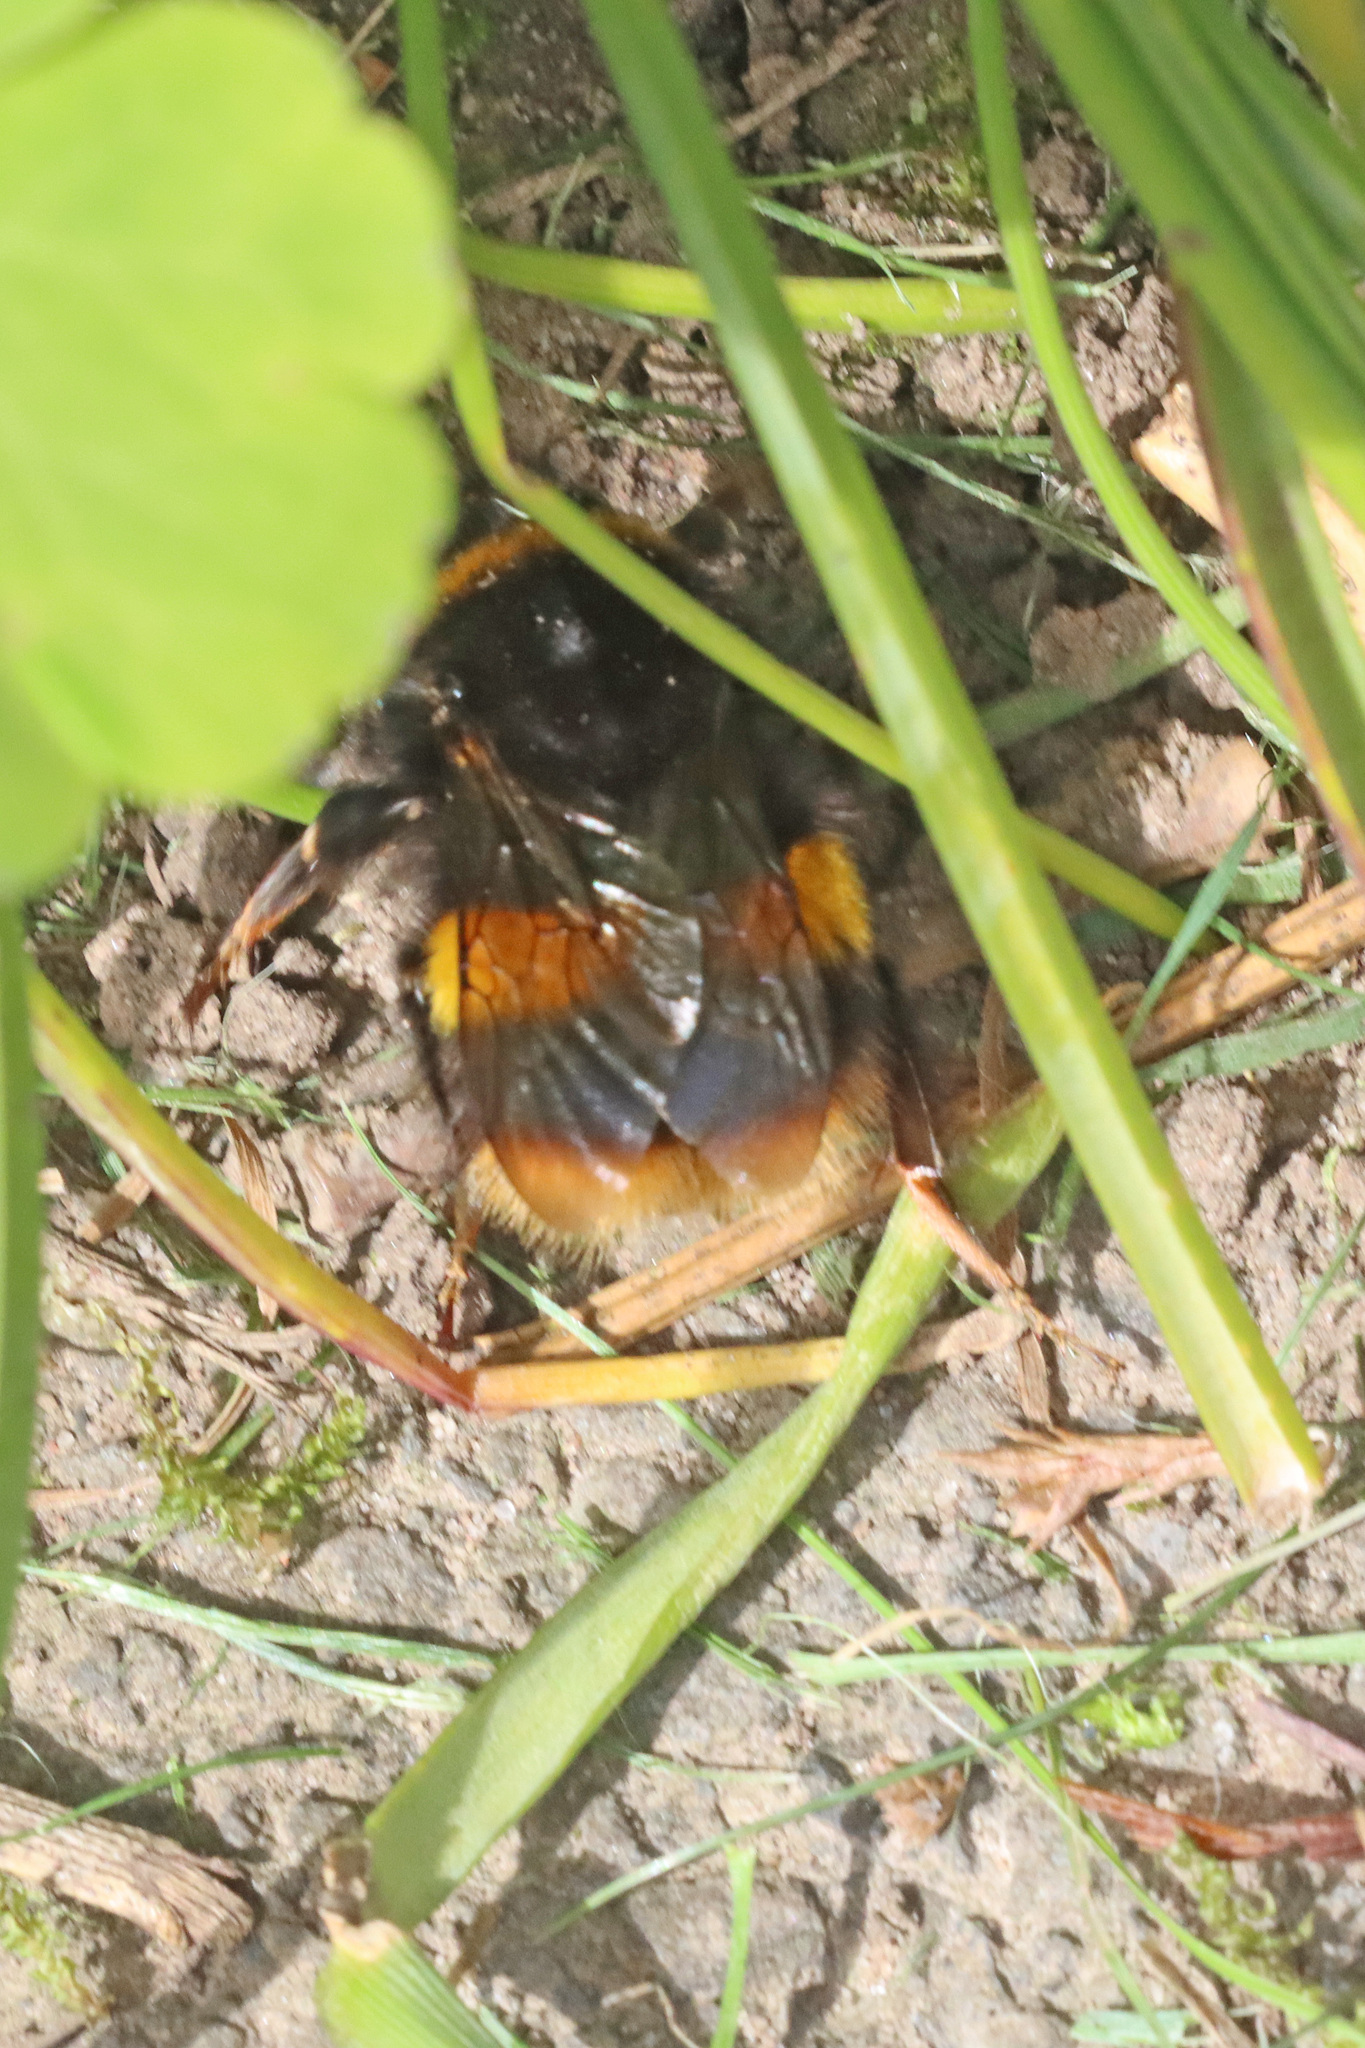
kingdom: Animalia
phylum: Arthropoda
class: Insecta
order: Hymenoptera
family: Apidae
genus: Bombus
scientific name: Bombus terrestris
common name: Buff-tailed bumblebee
